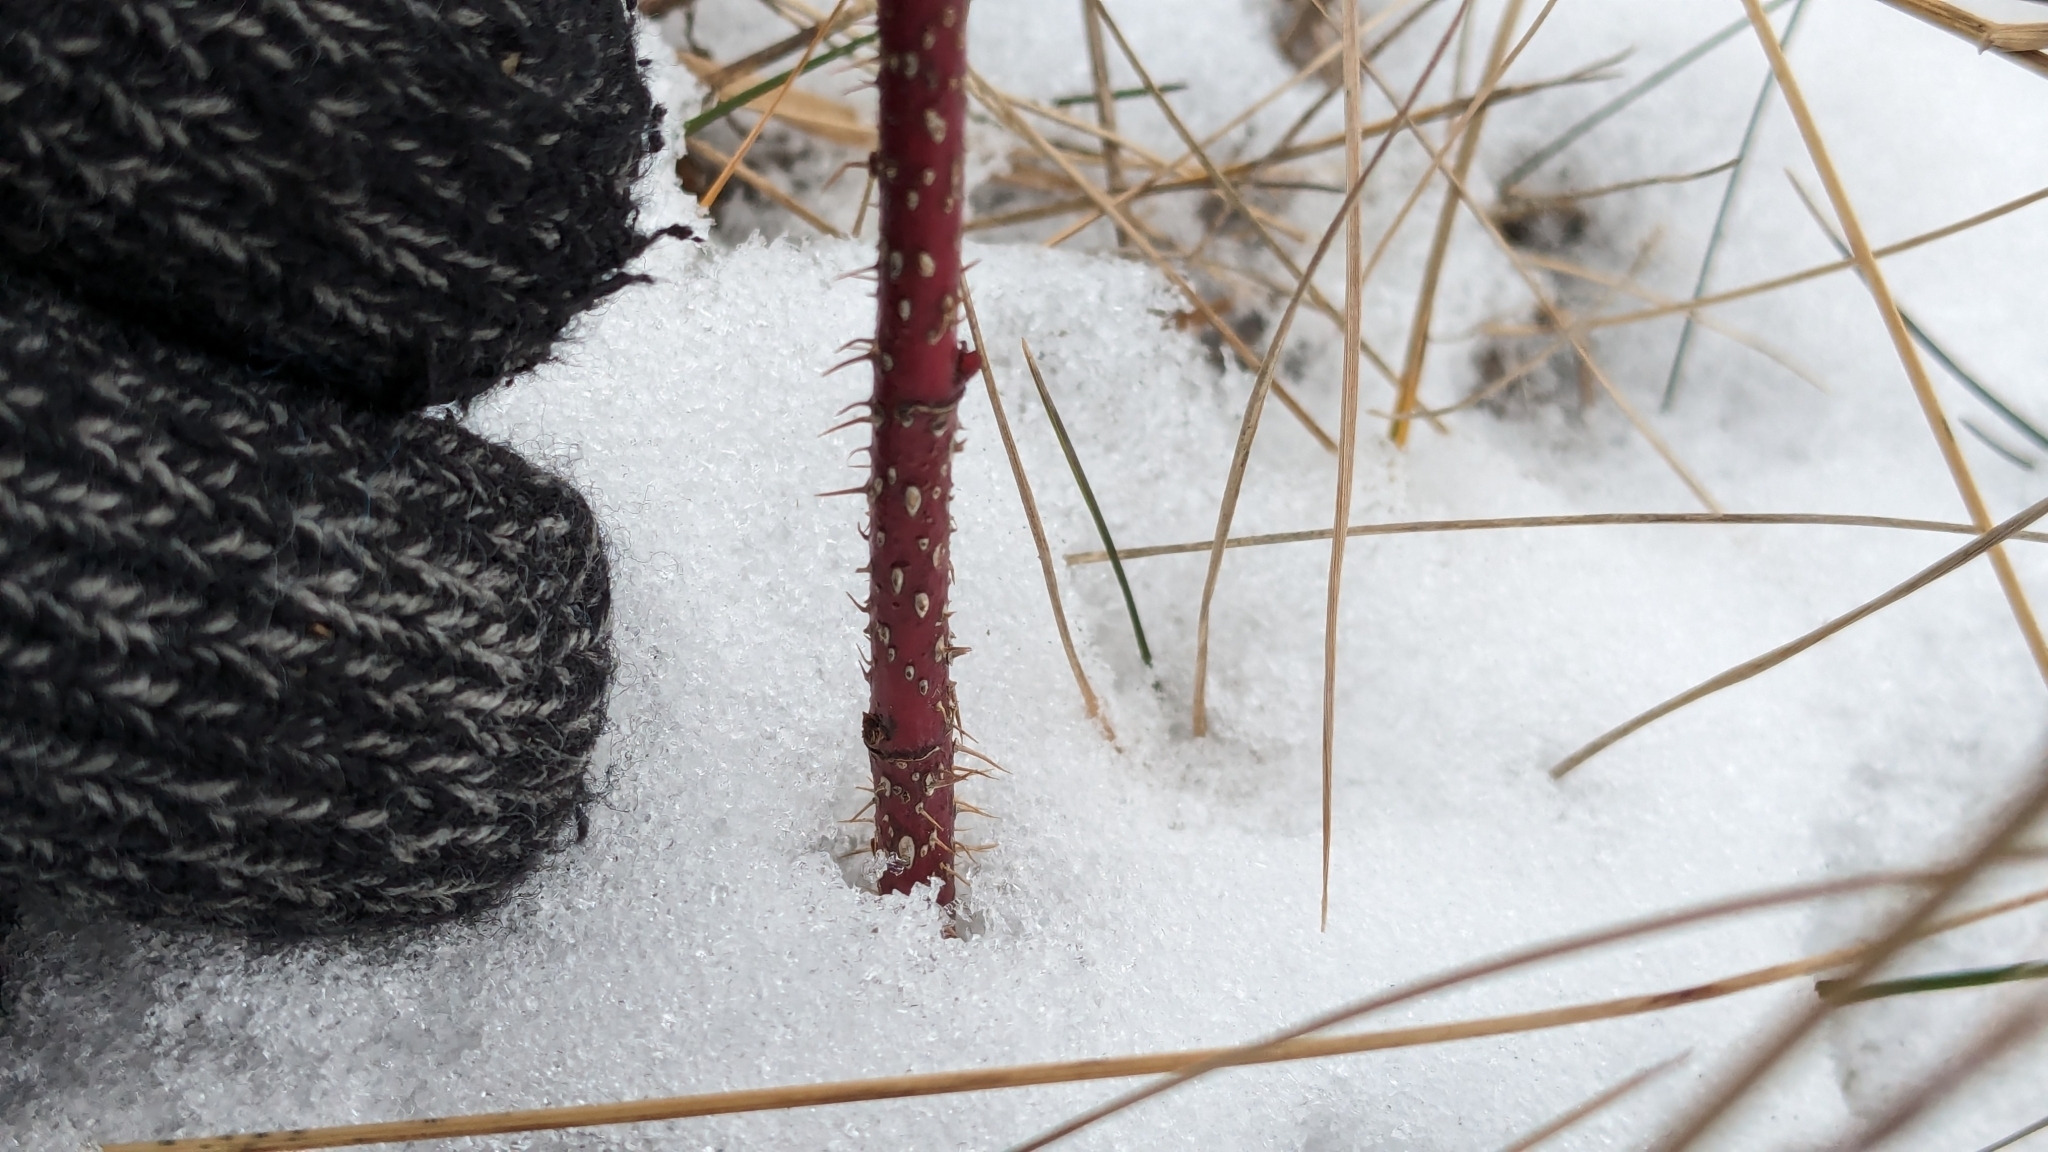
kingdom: Animalia
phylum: Arthropoda
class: Insecta
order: Diptera
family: Cecidomyiidae
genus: Rabdophaga
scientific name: Rabdophaga rosacea
